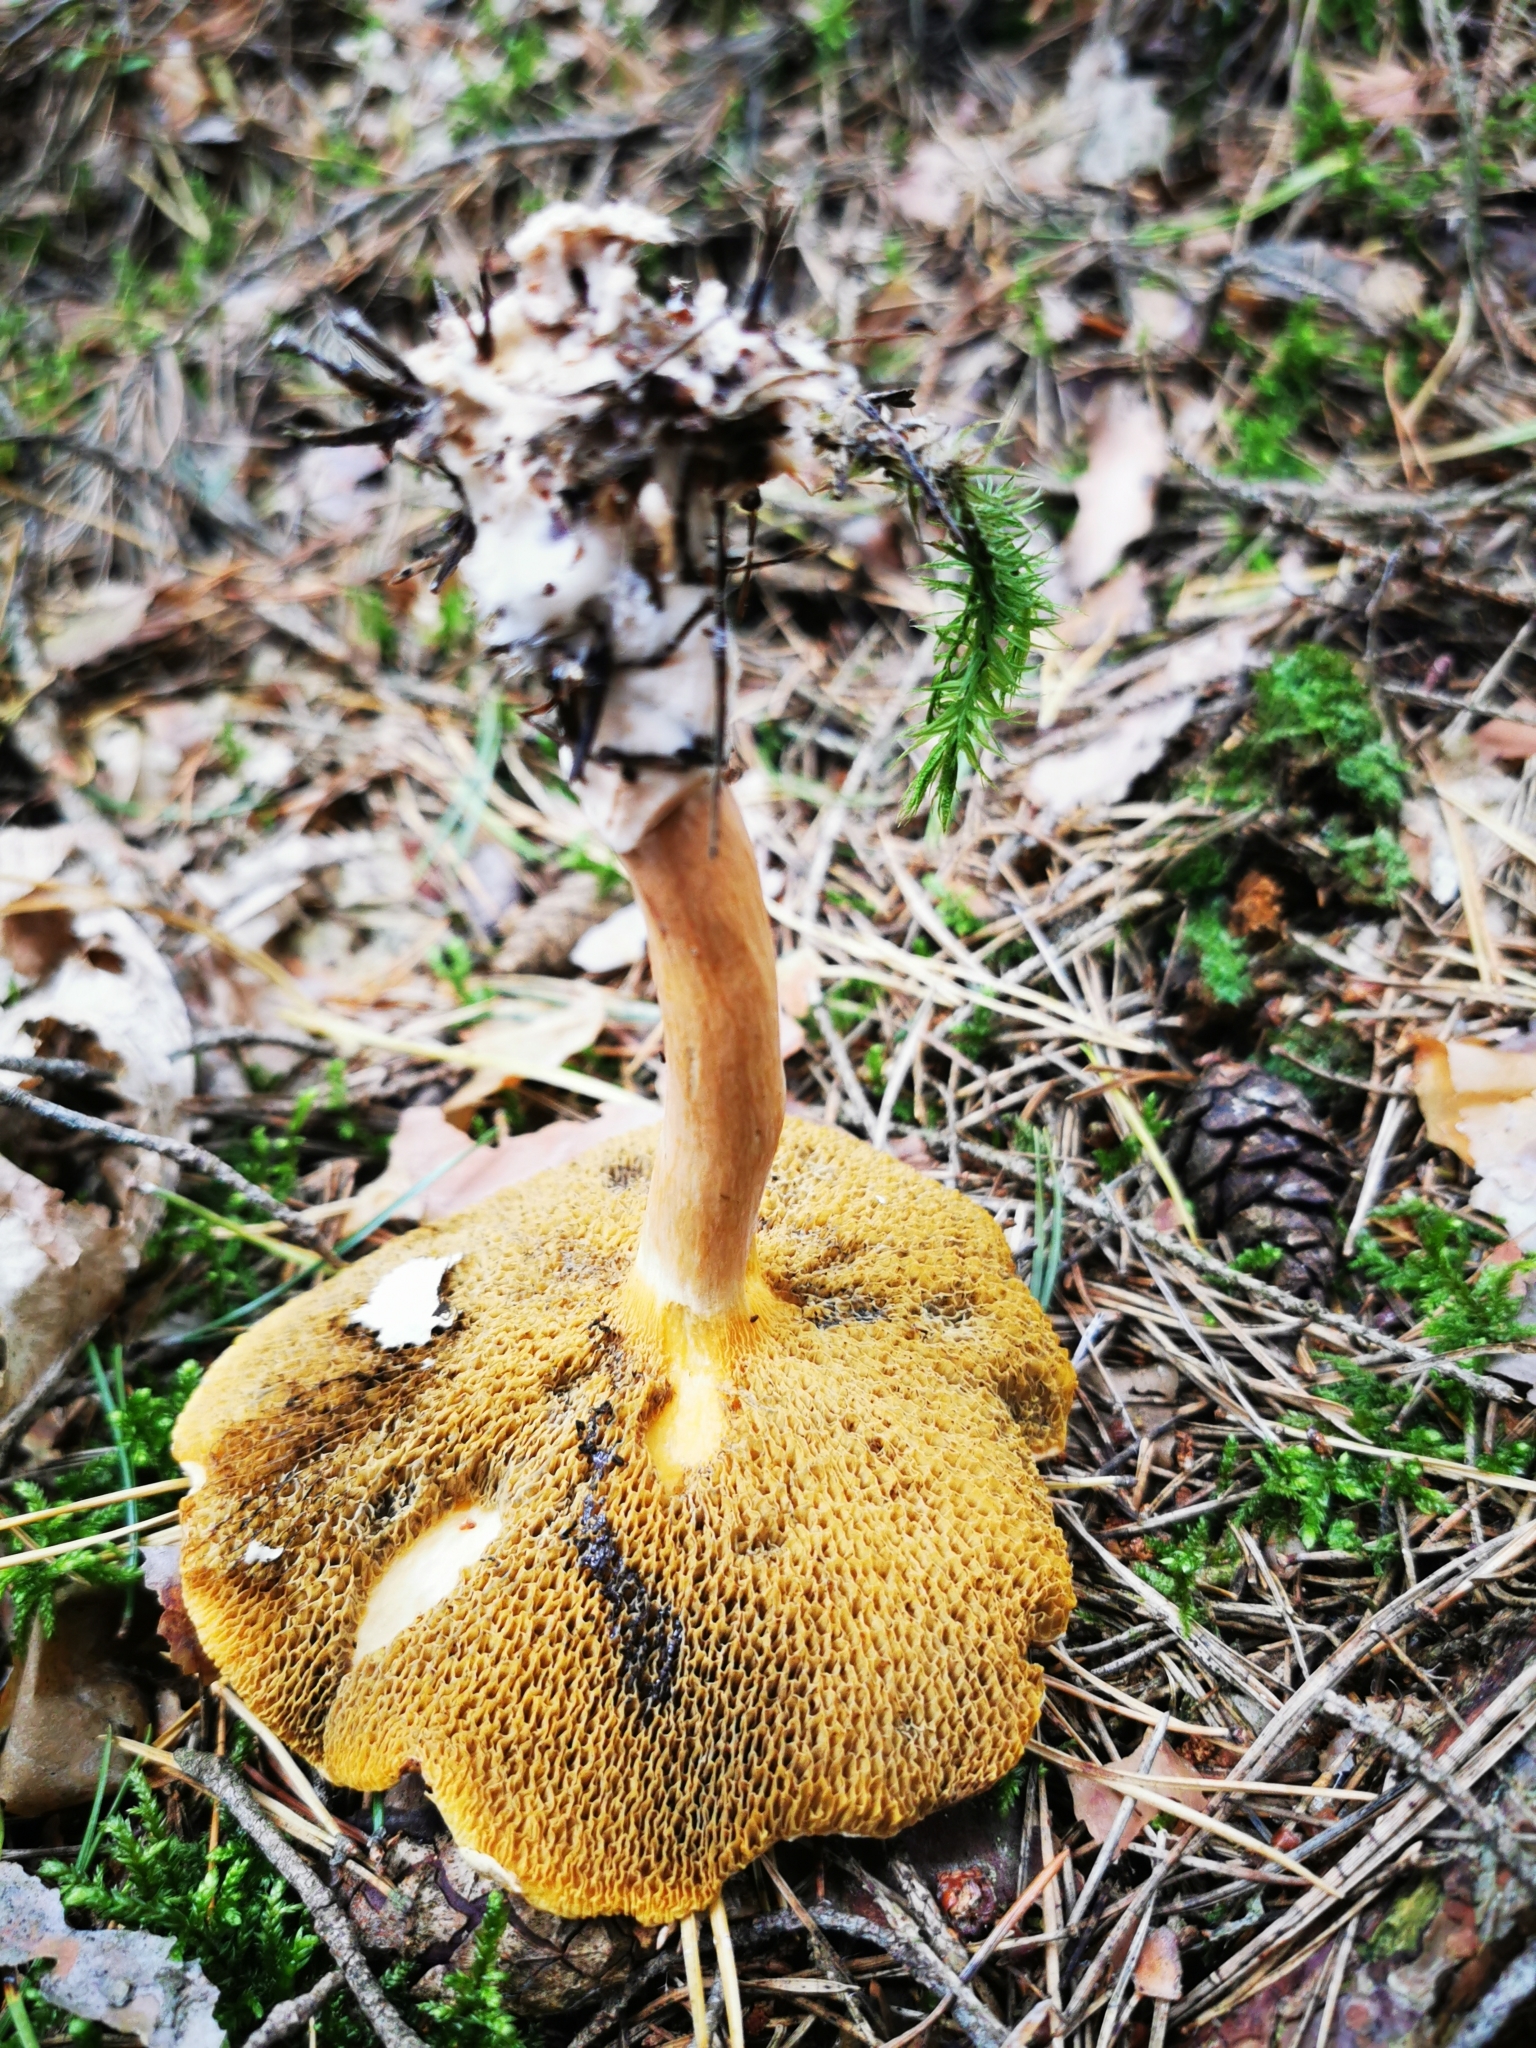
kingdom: Fungi
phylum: Basidiomycota
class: Agaricomycetes
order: Boletales
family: Suillaceae
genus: Suillus
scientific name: Suillus bovinus
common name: Bovine bolete
